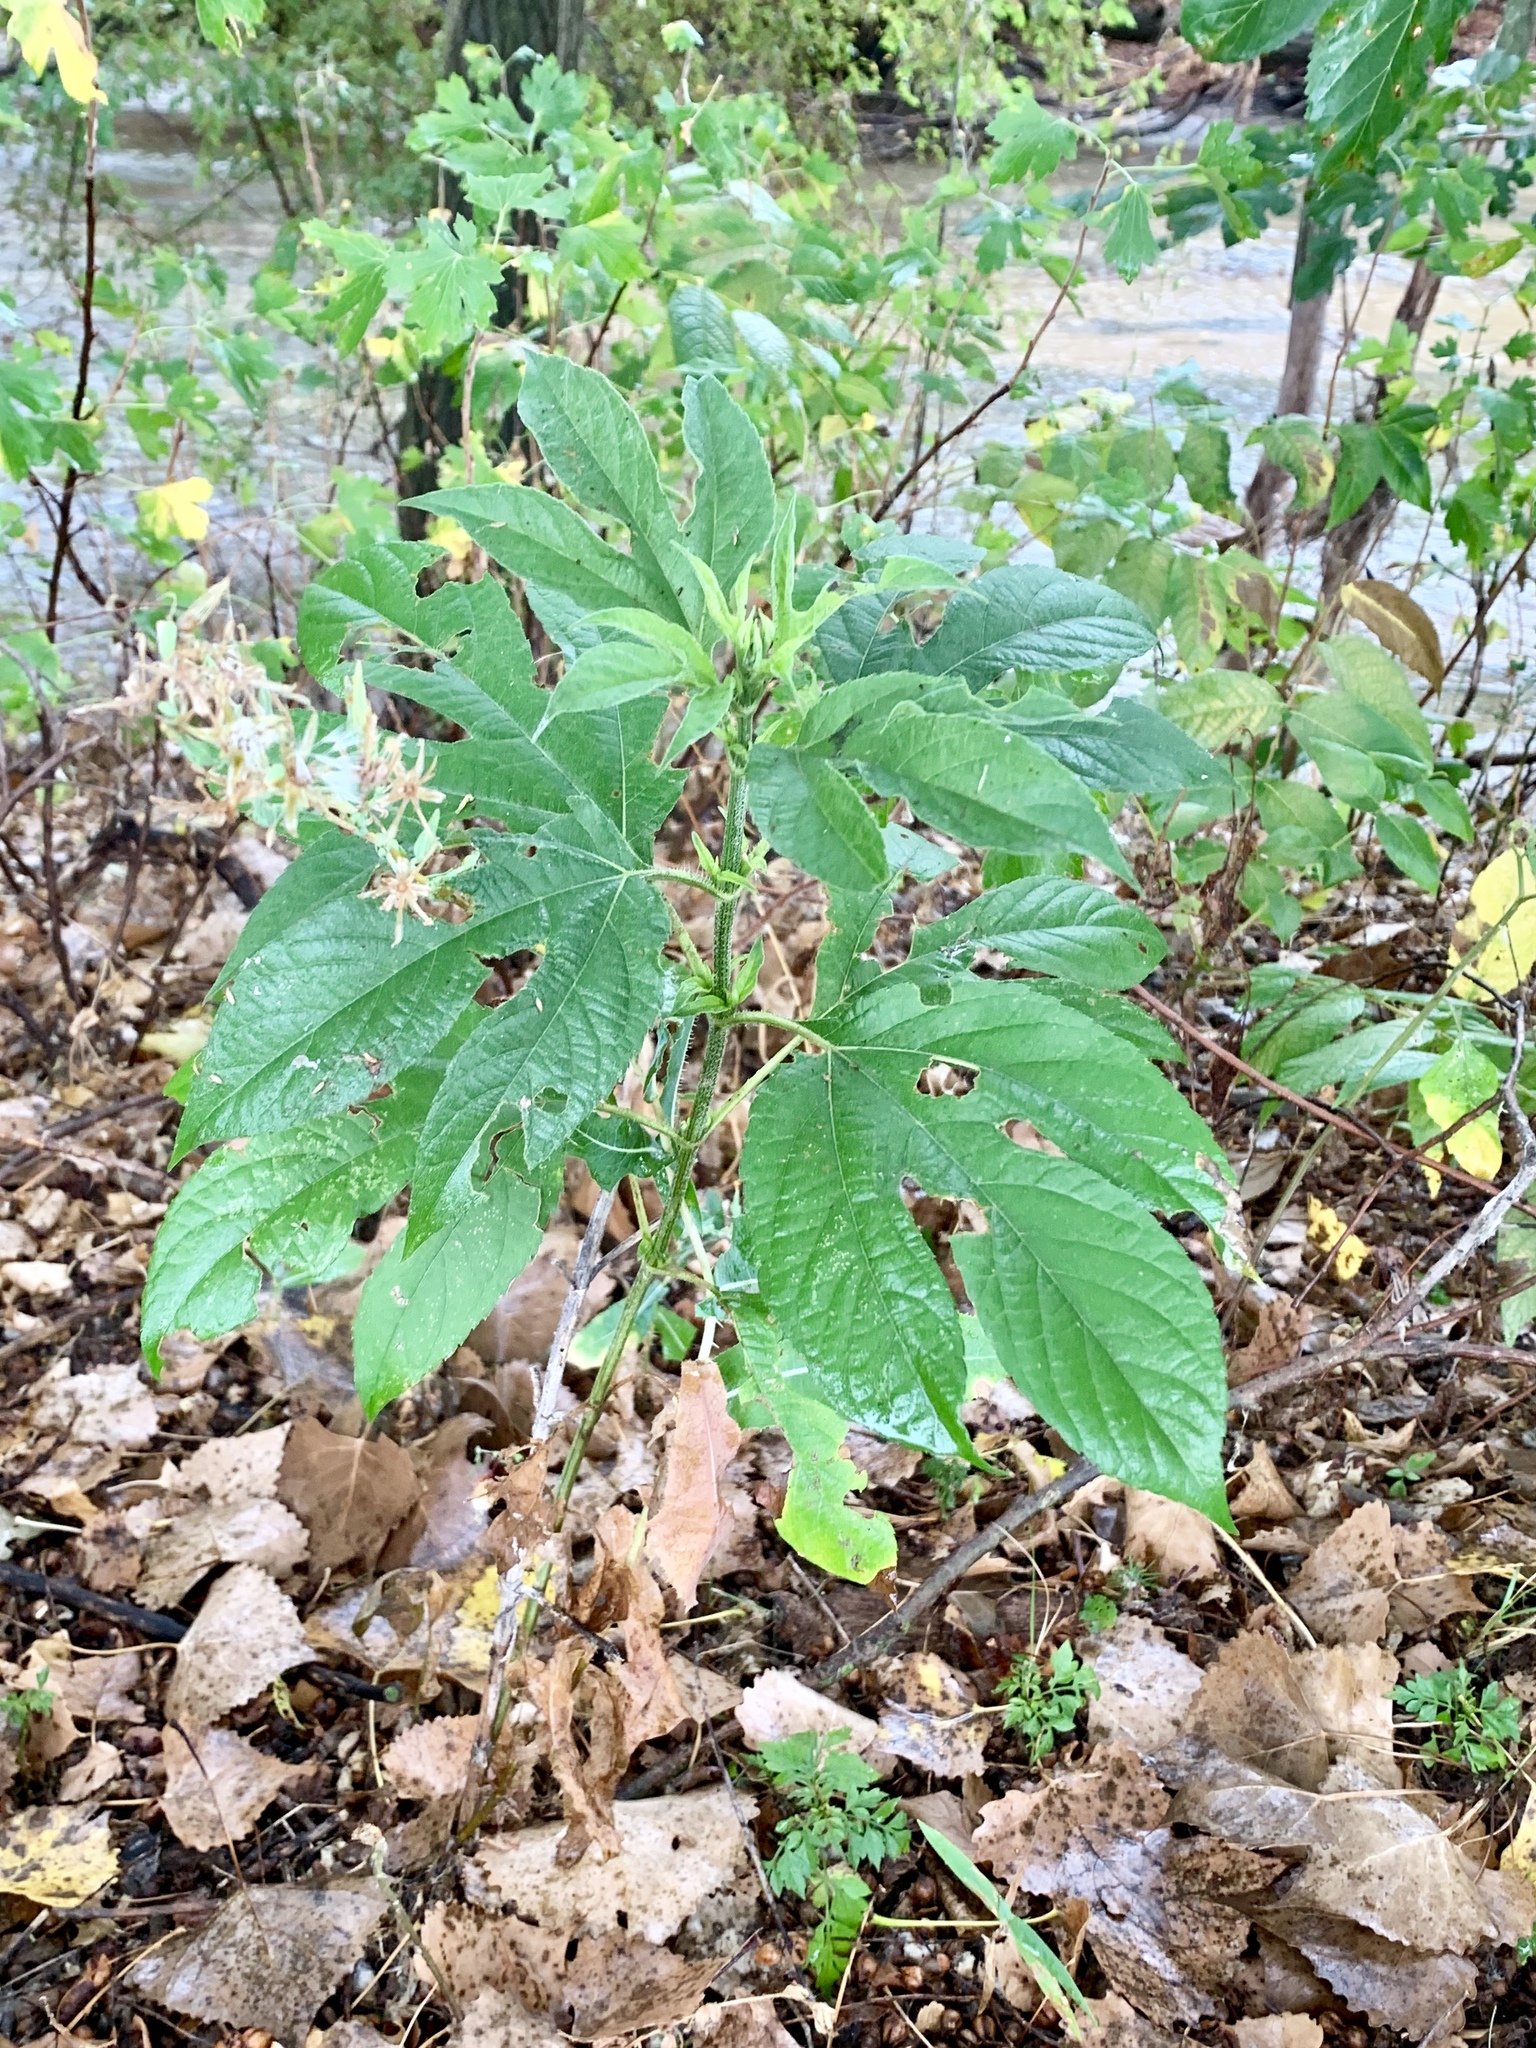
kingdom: Plantae
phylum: Tracheophyta
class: Magnoliopsida
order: Asterales
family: Asteraceae
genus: Ambrosia
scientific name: Ambrosia trifida
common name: Giant ragweed
